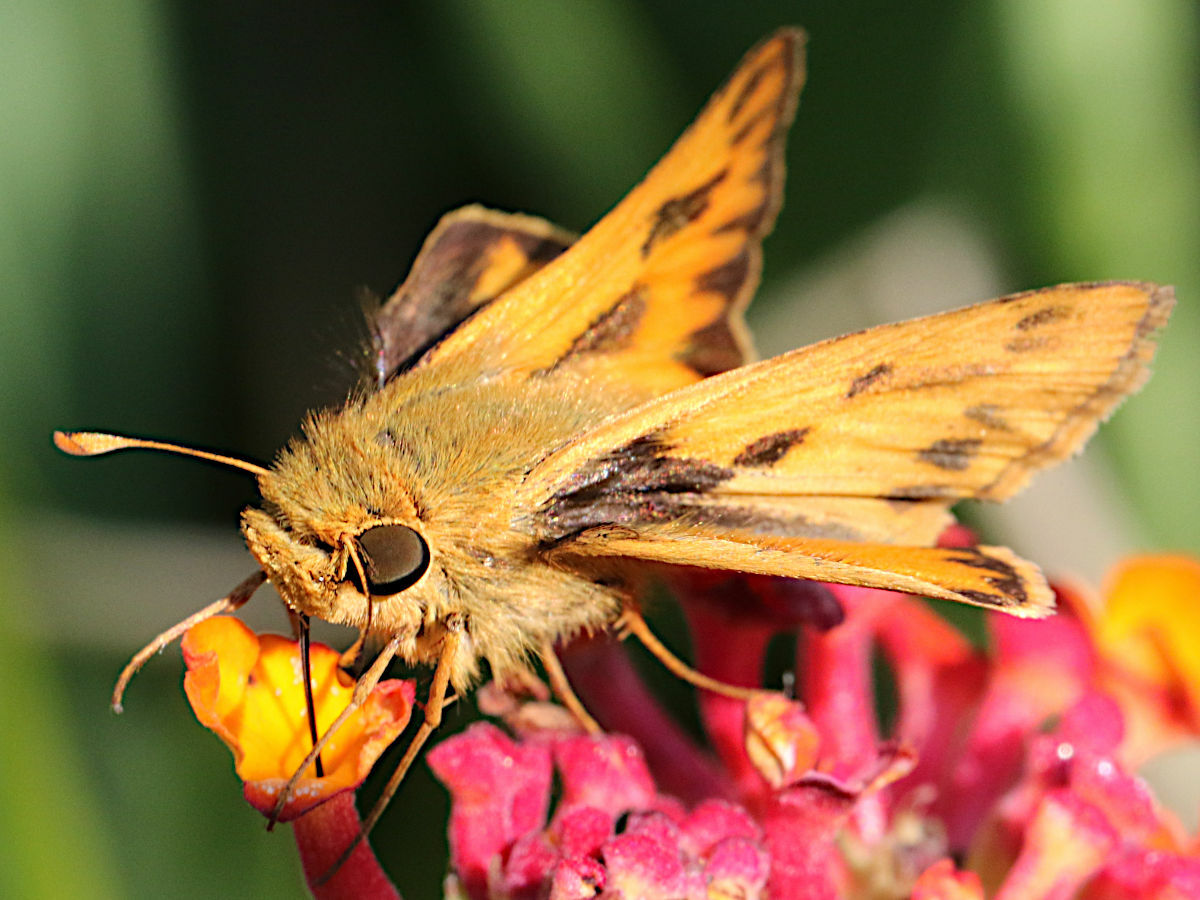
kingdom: Animalia
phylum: Arthropoda
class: Insecta
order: Lepidoptera
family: Hesperiidae
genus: Hylephila
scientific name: Hylephila phyleus
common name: Fiery skipper
